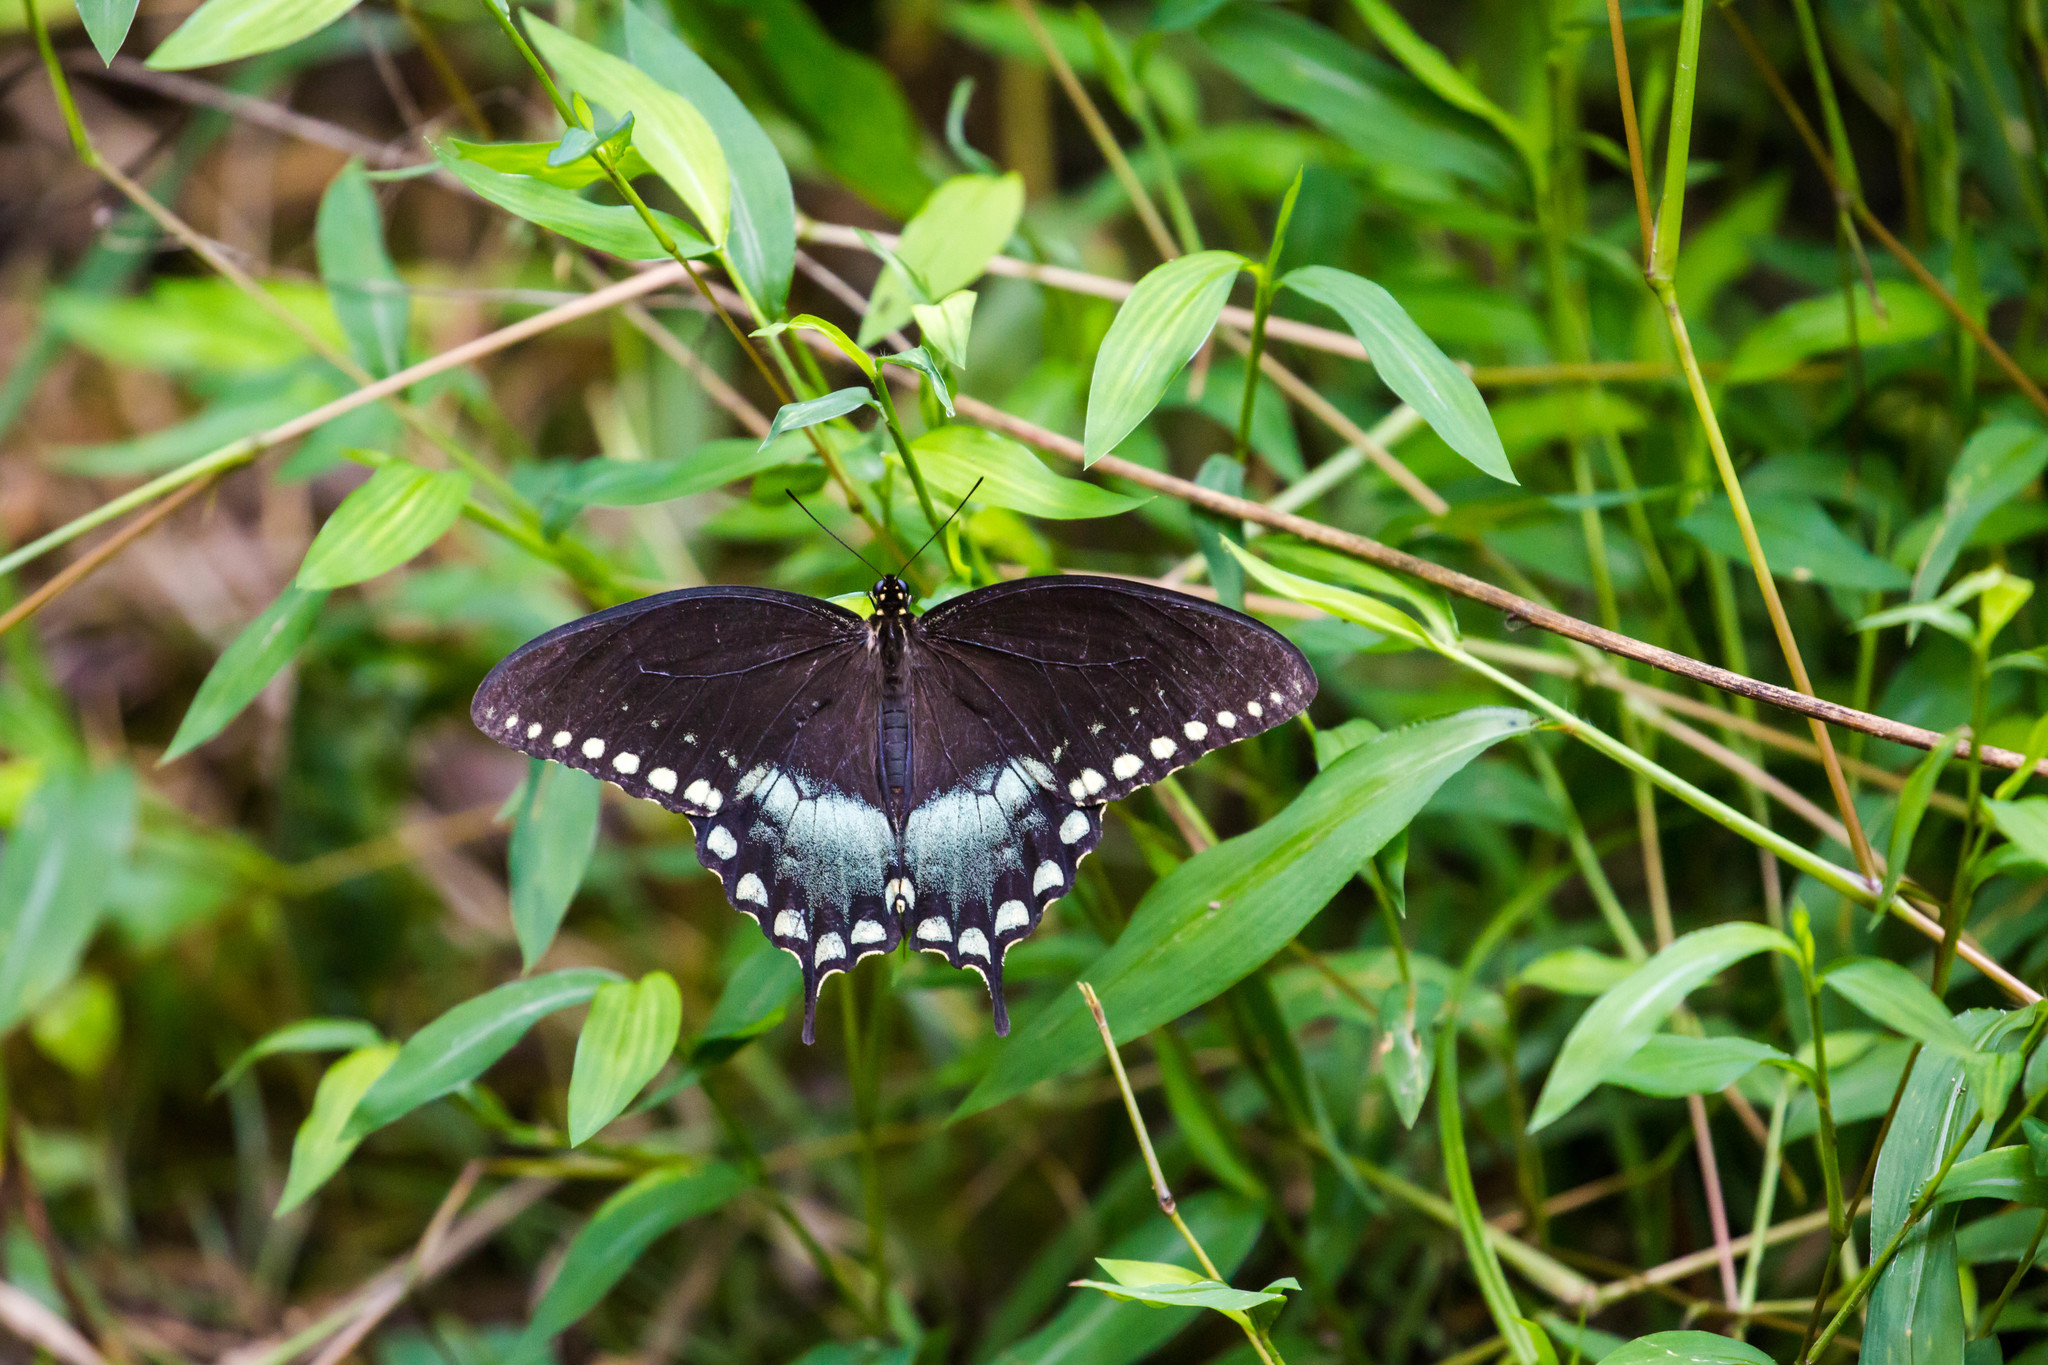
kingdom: Animalia
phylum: Arthropoda
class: Insecta
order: Lepidoptera
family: Papilionidae
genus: Papilio
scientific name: Papilio troilus
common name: Spicebush swallowtail
